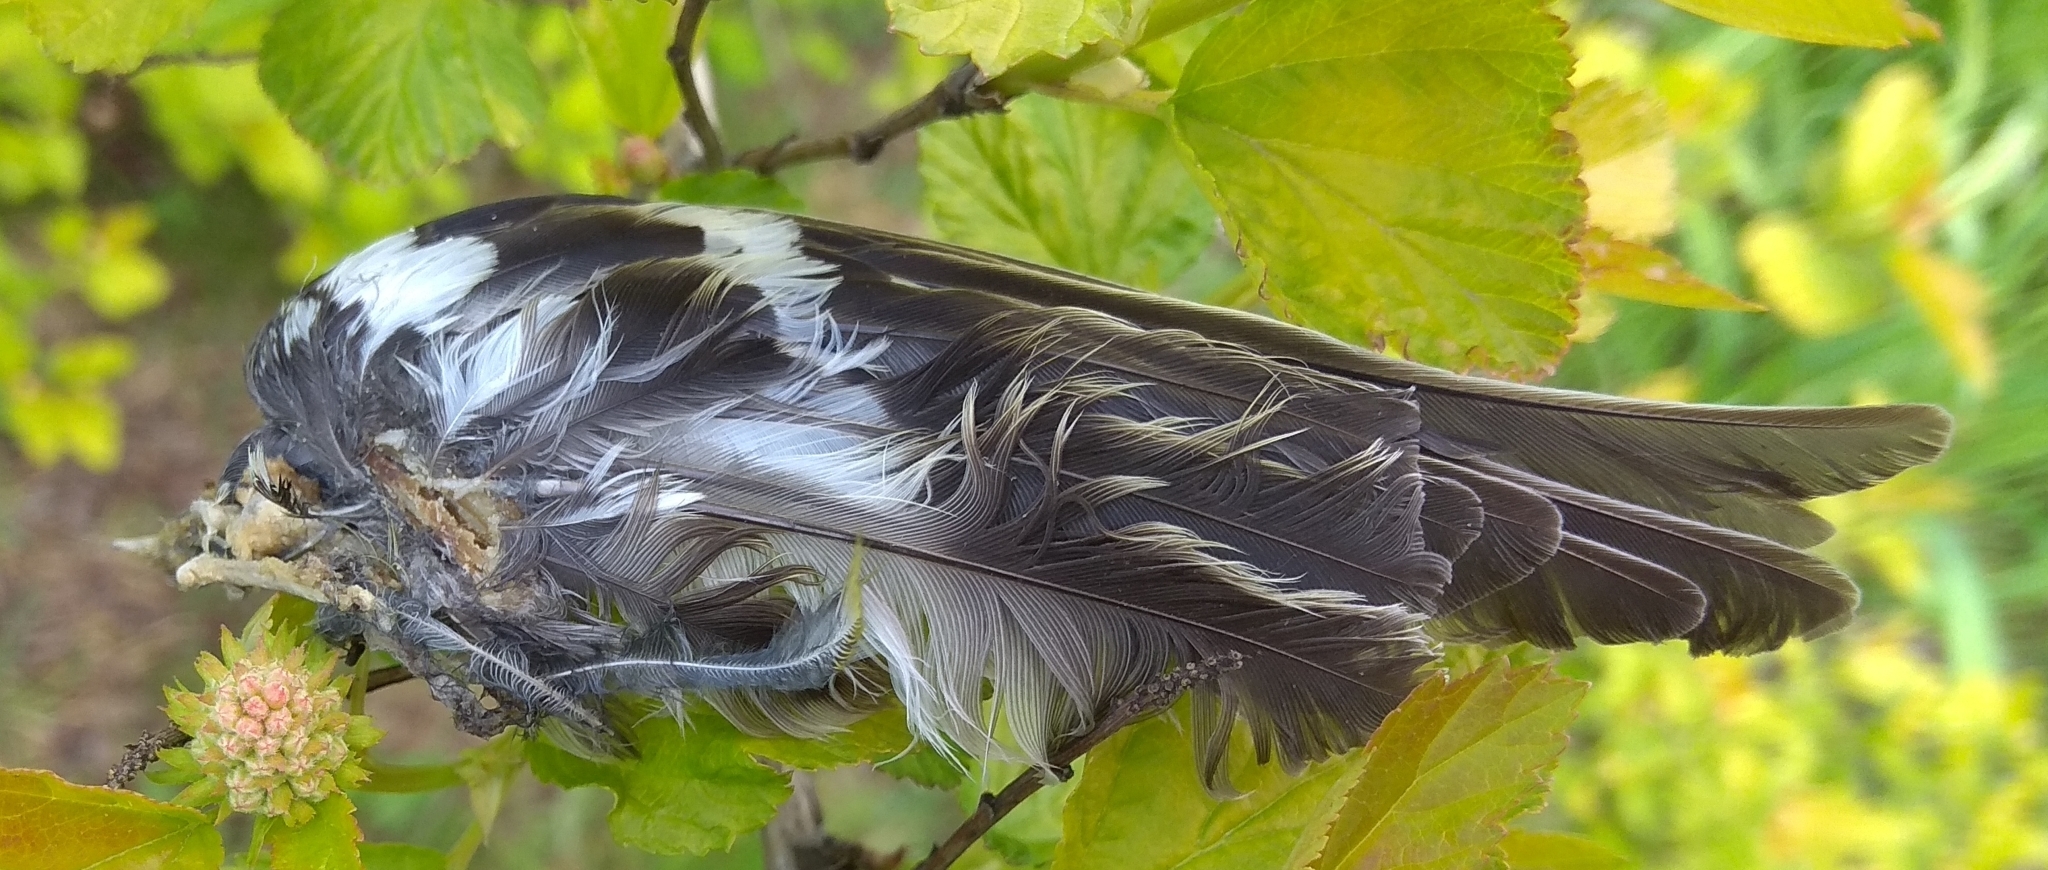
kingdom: Animalia
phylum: Chordata
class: Aves
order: Passeriformes
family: Fringillidae
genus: Fringilla
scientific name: Fringilla coelebs
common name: Common chaffinch
